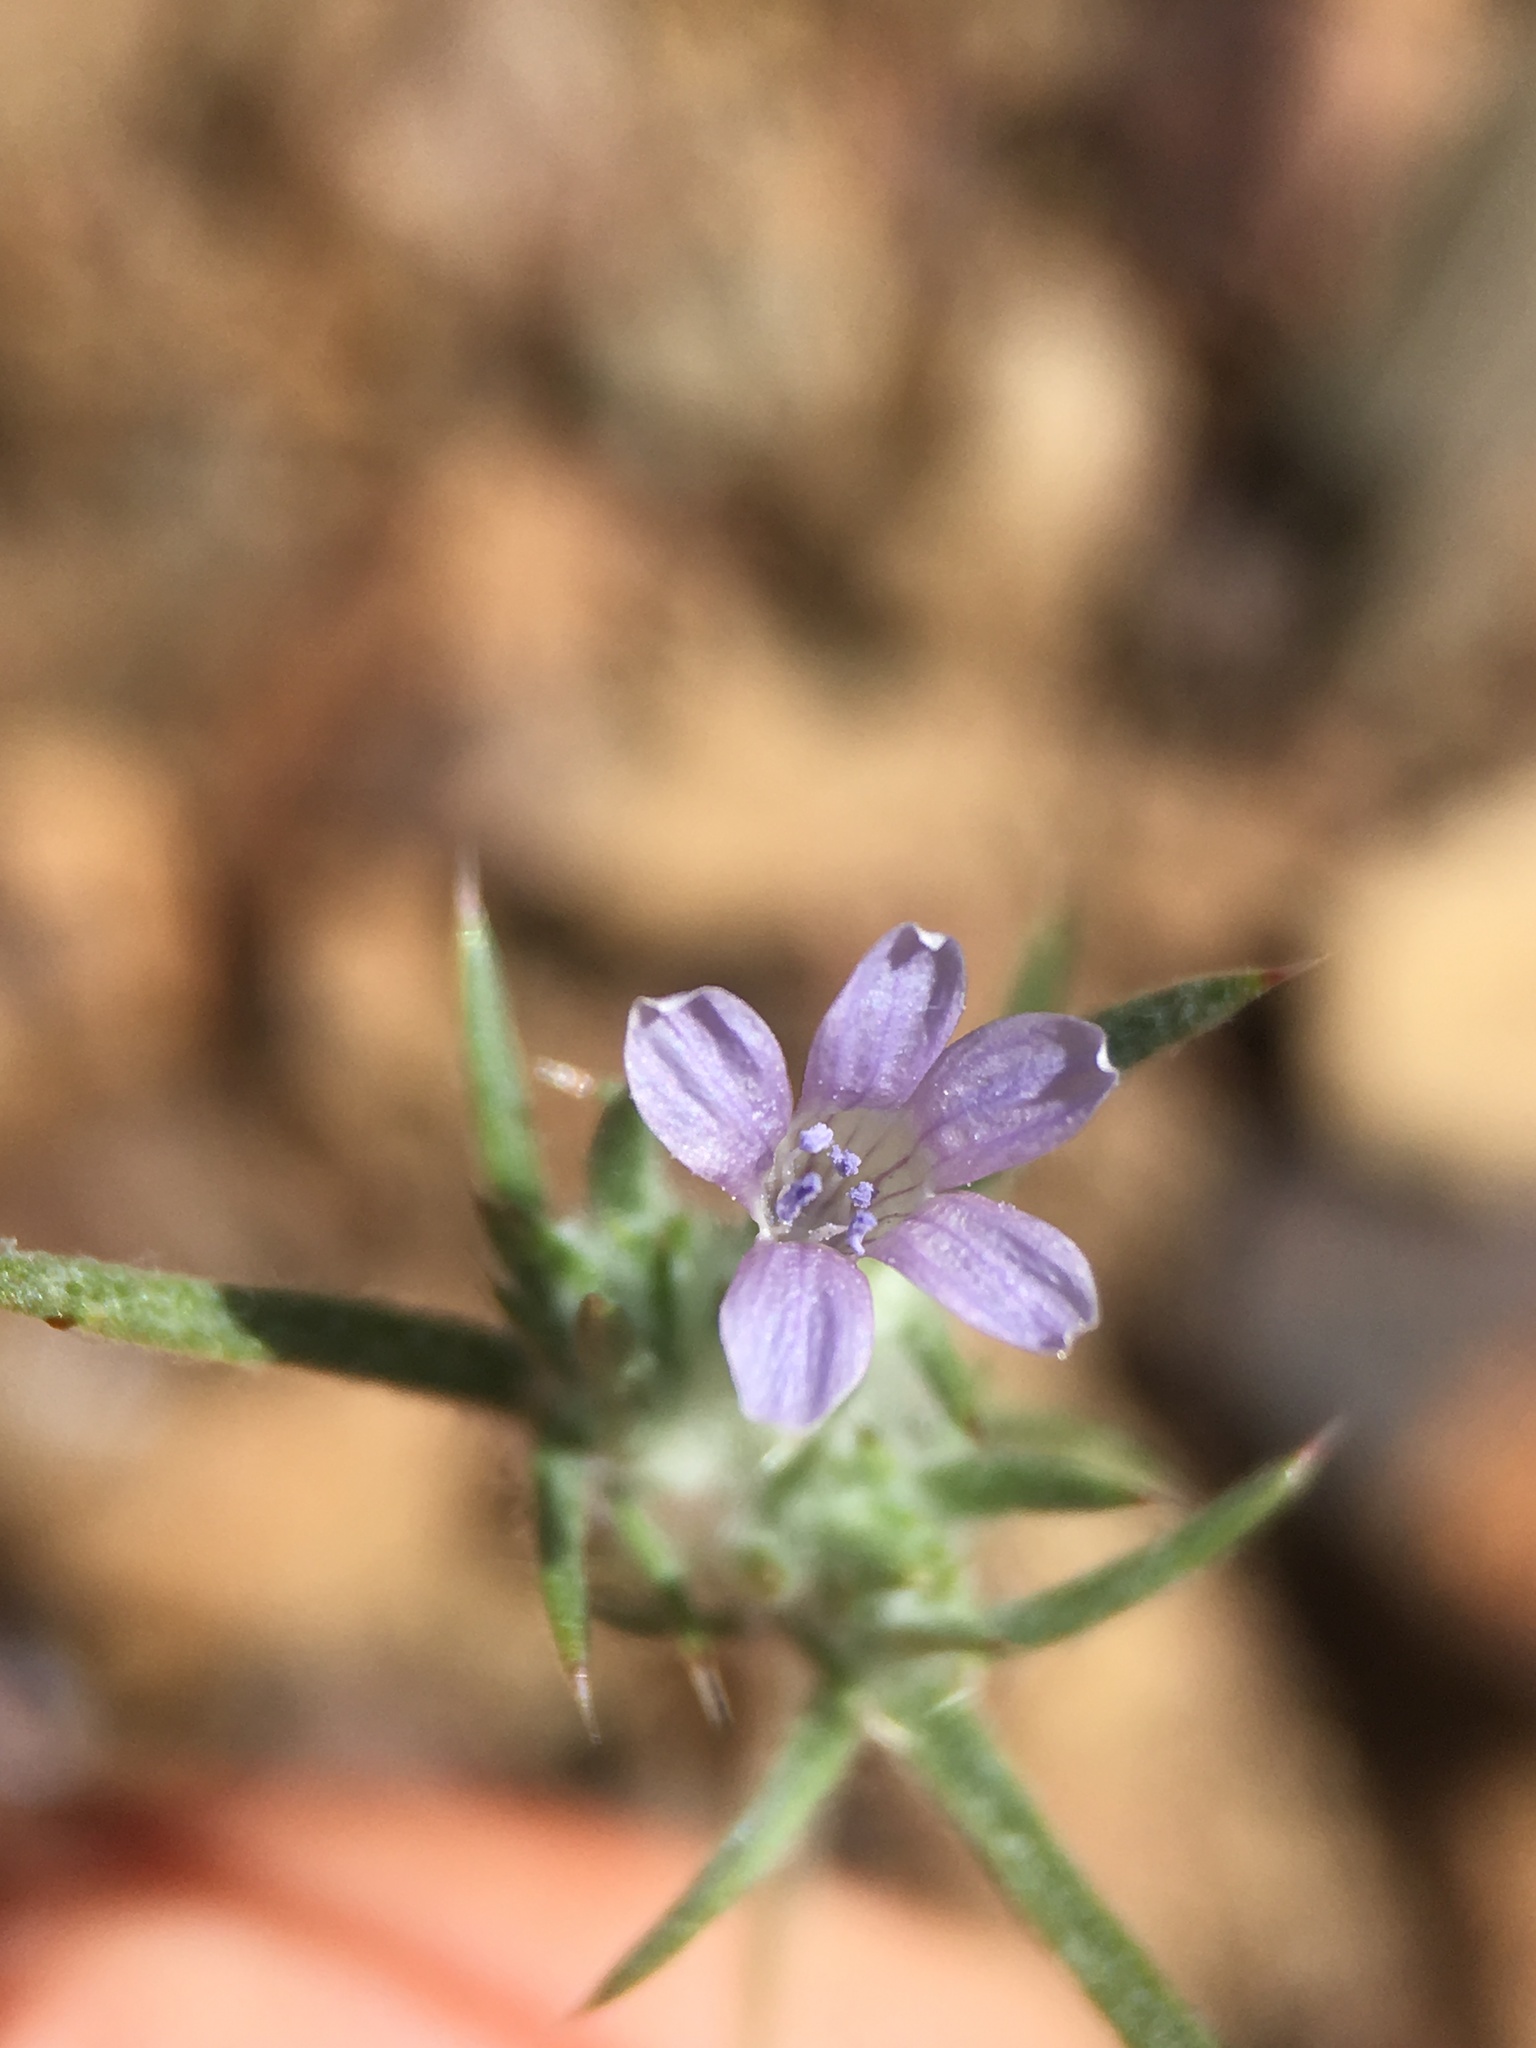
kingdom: Plantae
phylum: Tracheophyta
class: Magnoliopsida
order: Ericales
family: Polemoniaceae
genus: Eriastrum
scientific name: Eriastrum wilcoxii
